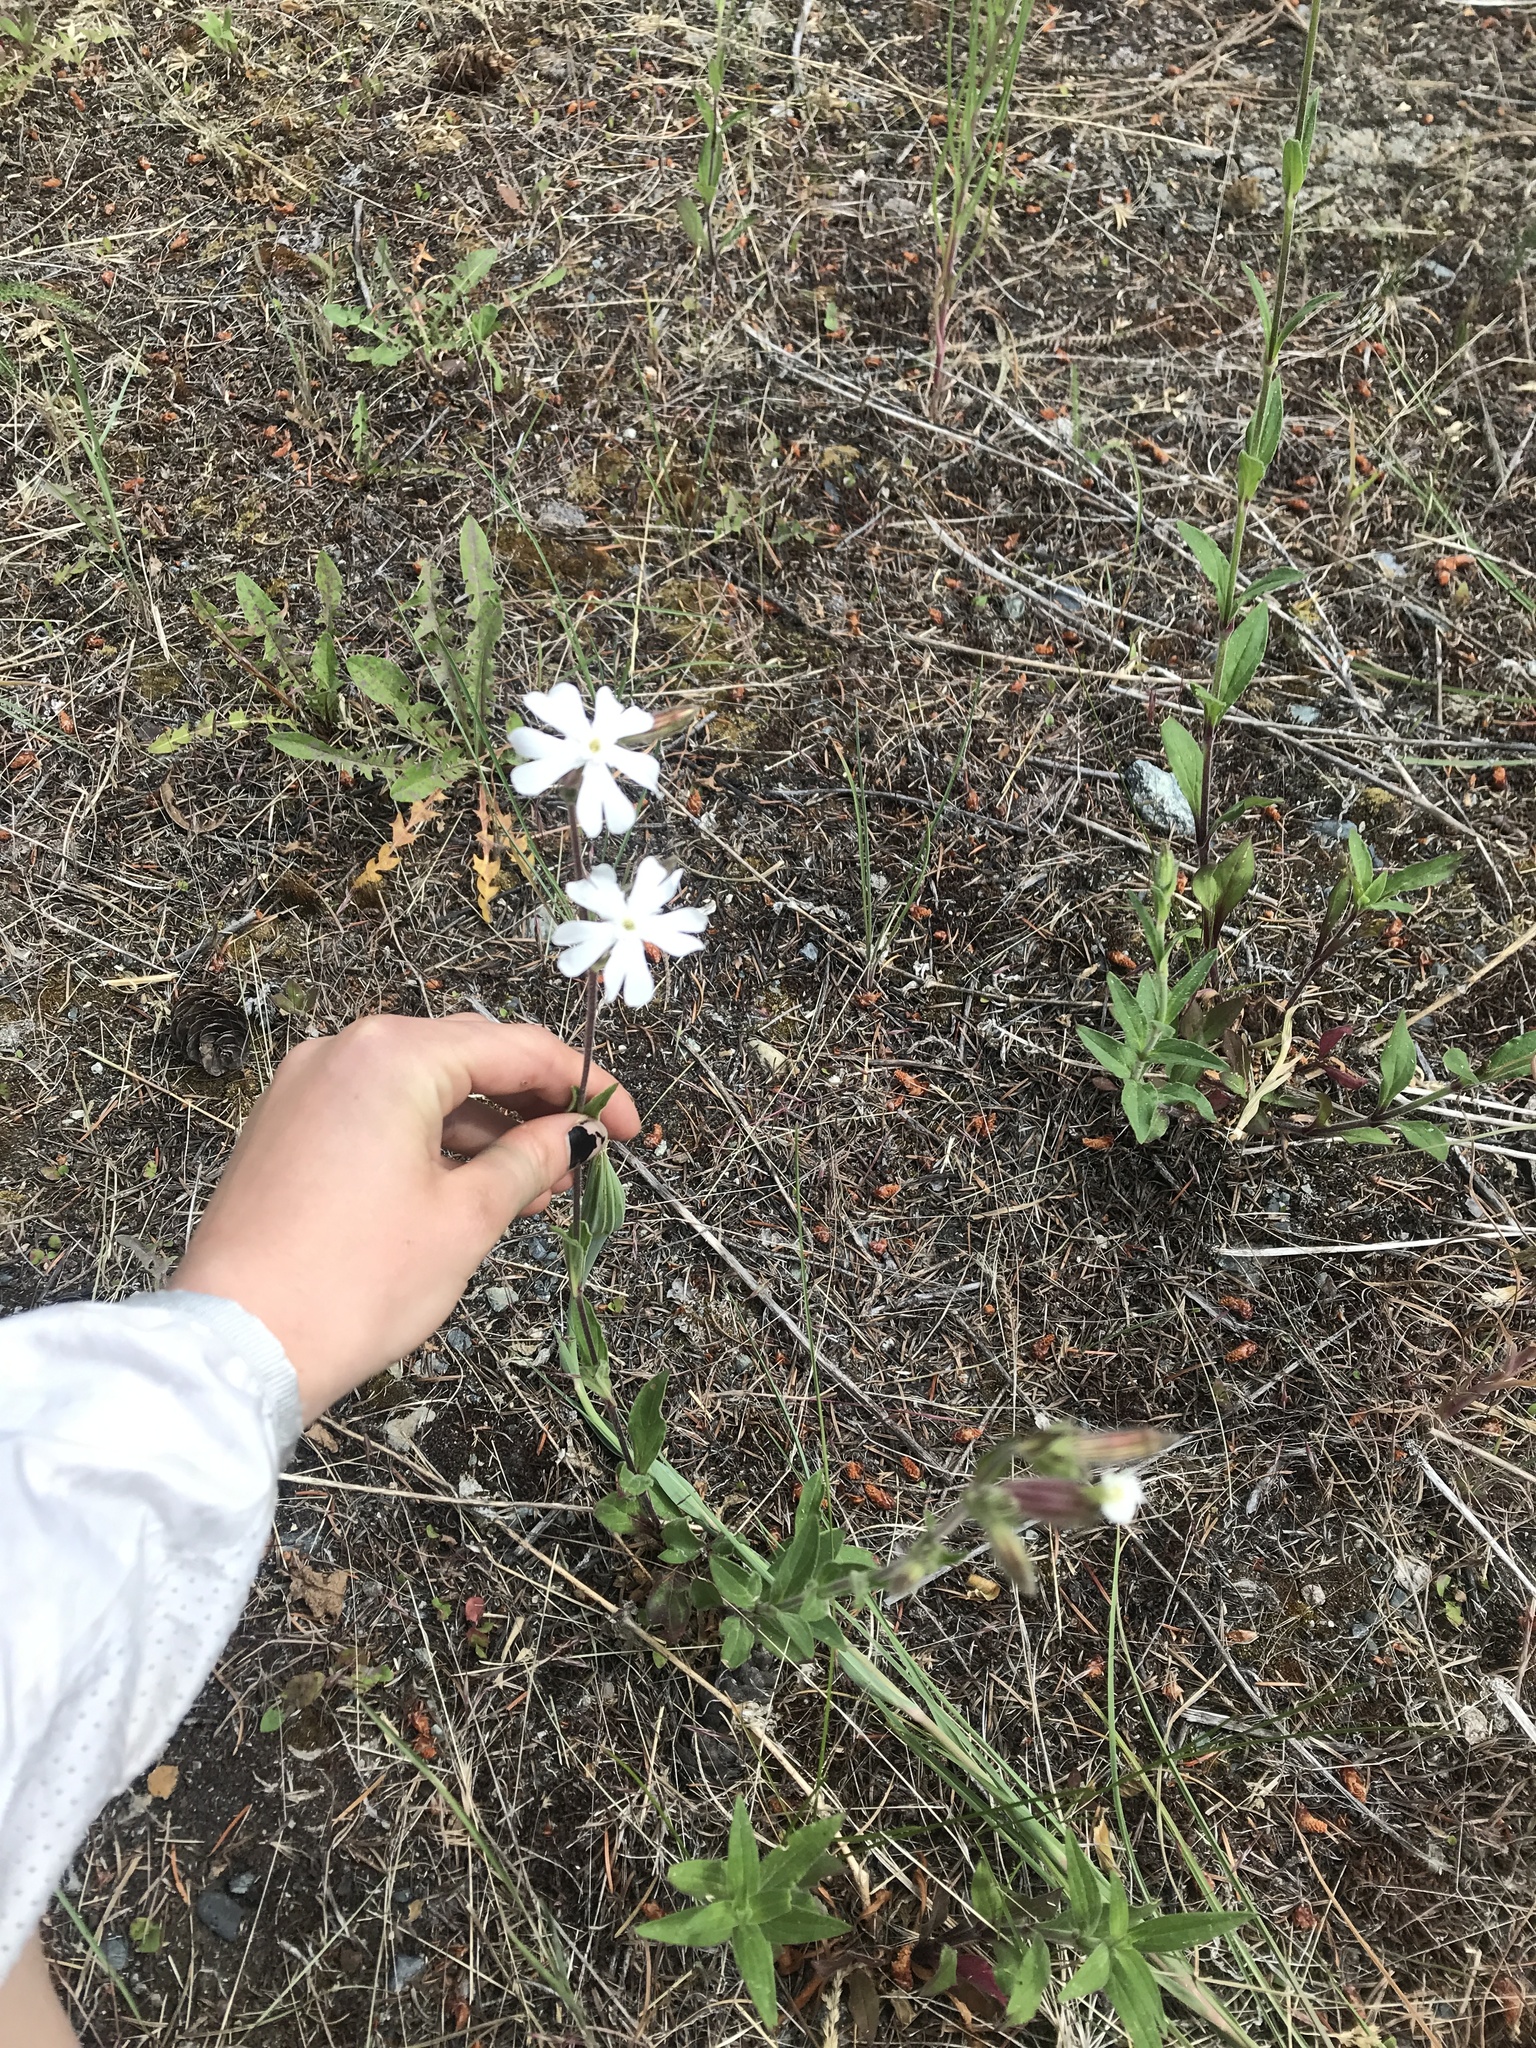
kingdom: Plantae
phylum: Tracheophyta
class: Magnoliopsida
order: Caryophyllales
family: Caryophyllaceae
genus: Silene
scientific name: Silene latifolia
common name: White campion
